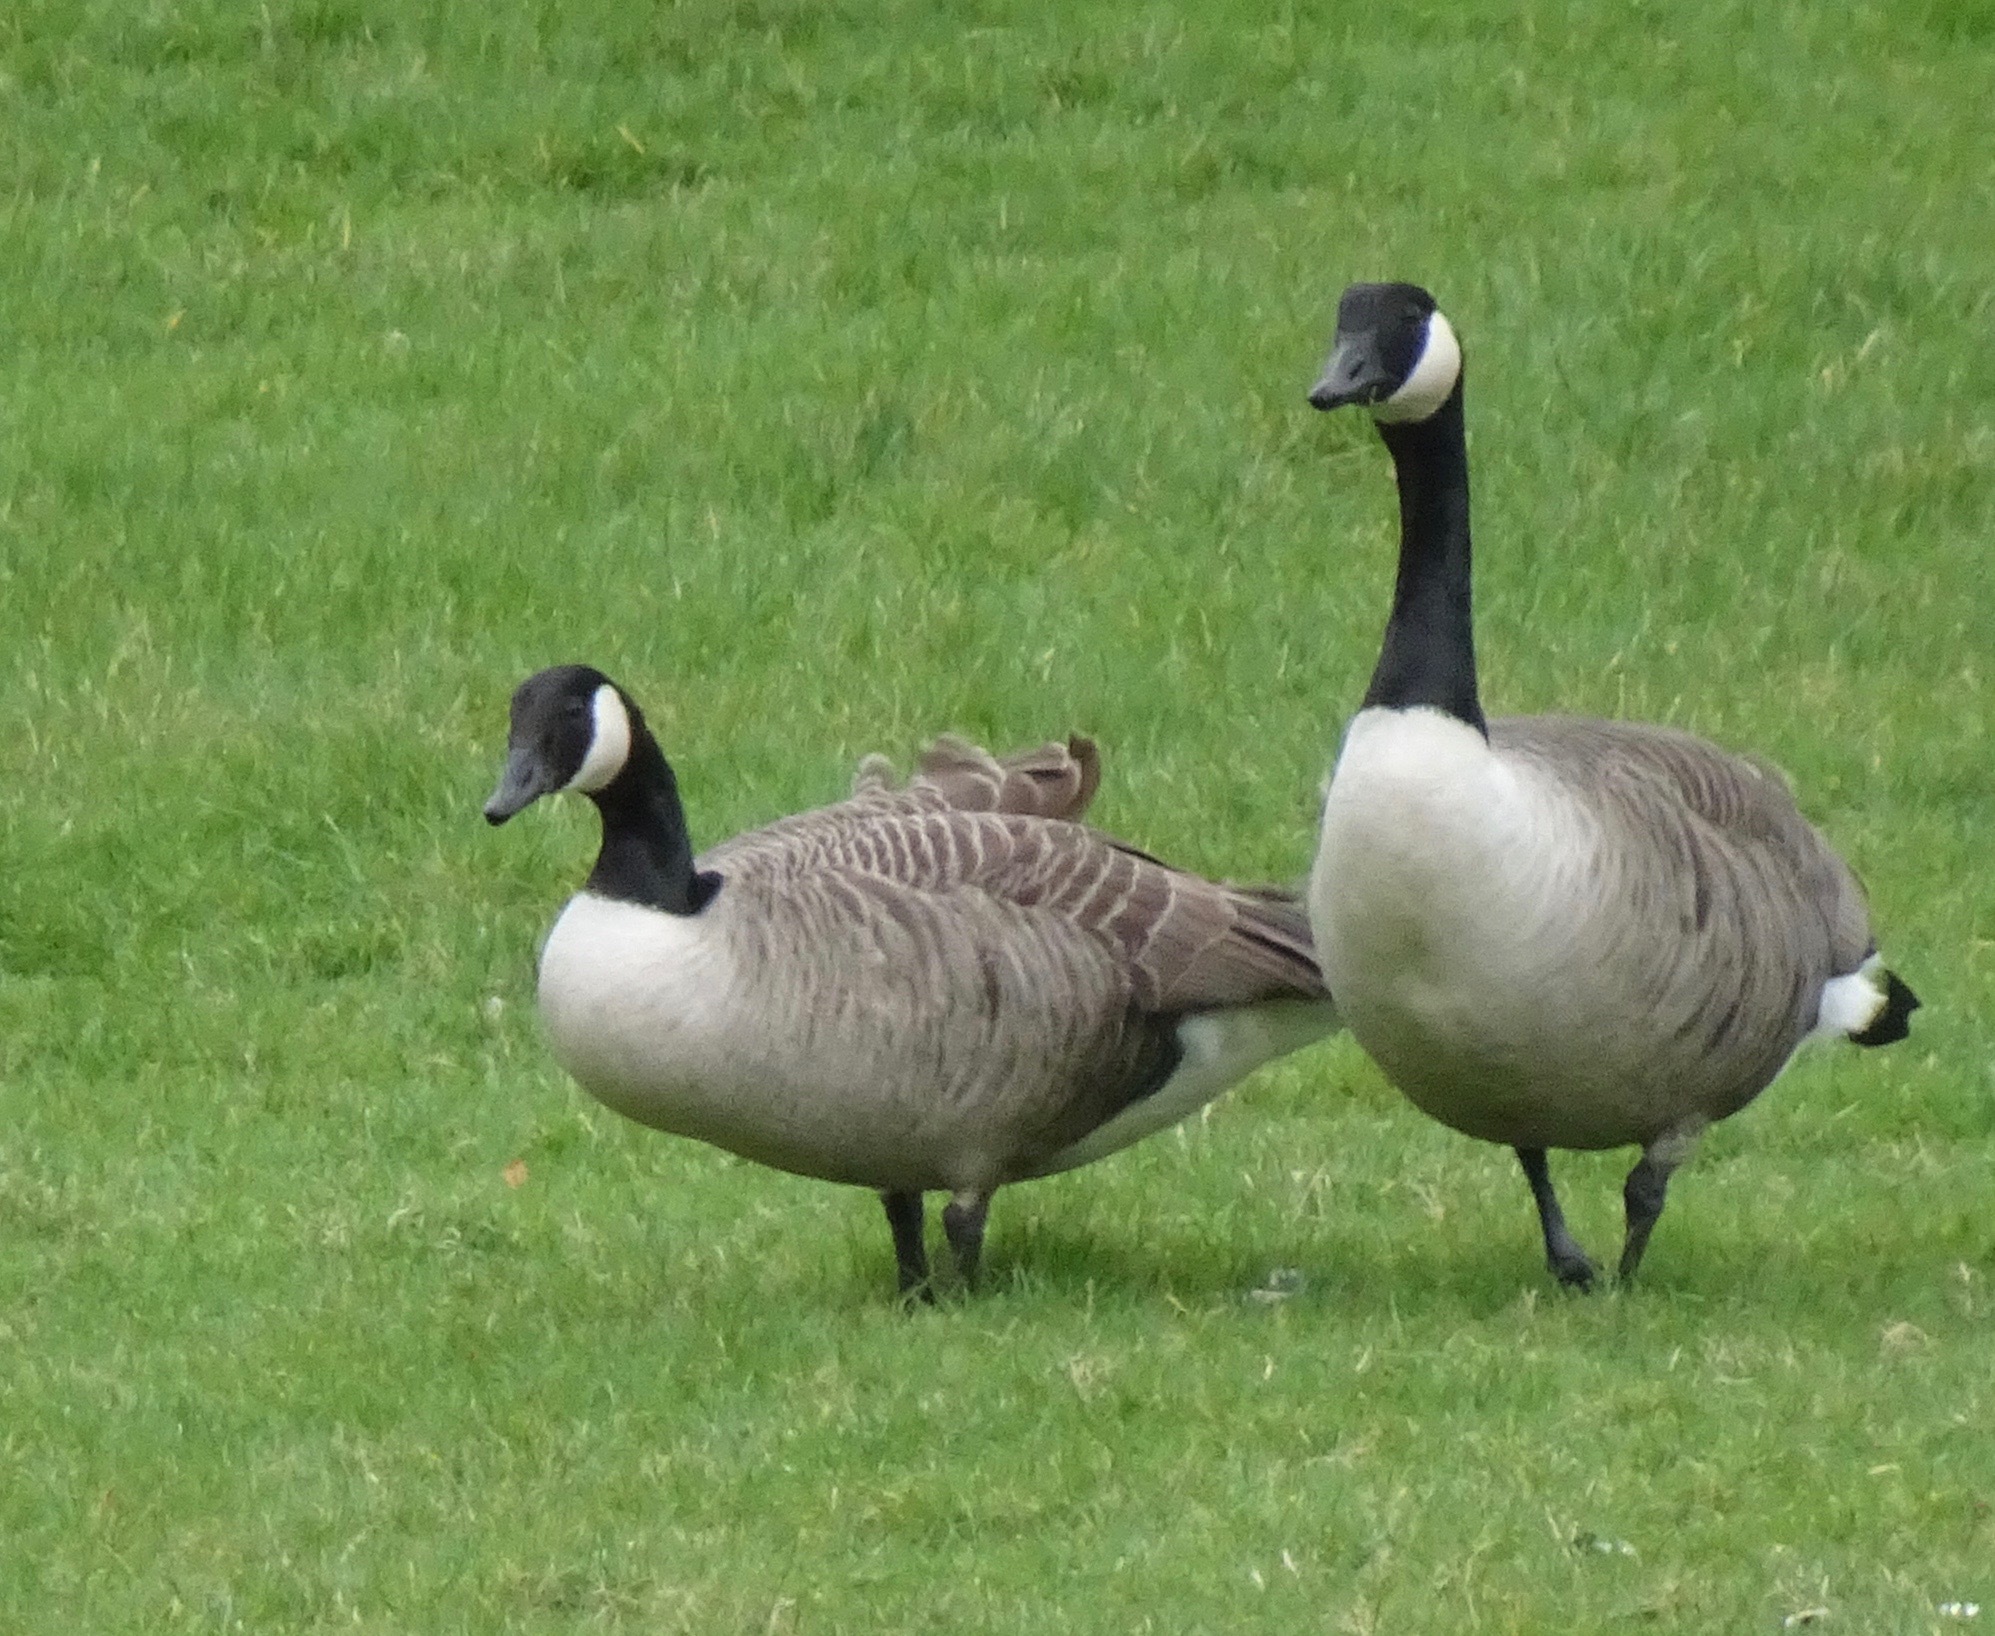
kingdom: Animalia
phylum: Chordata
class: Aves
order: Anseriformes
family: Anatidae
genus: Branta
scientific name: Branta canadensis
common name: Canada goose
